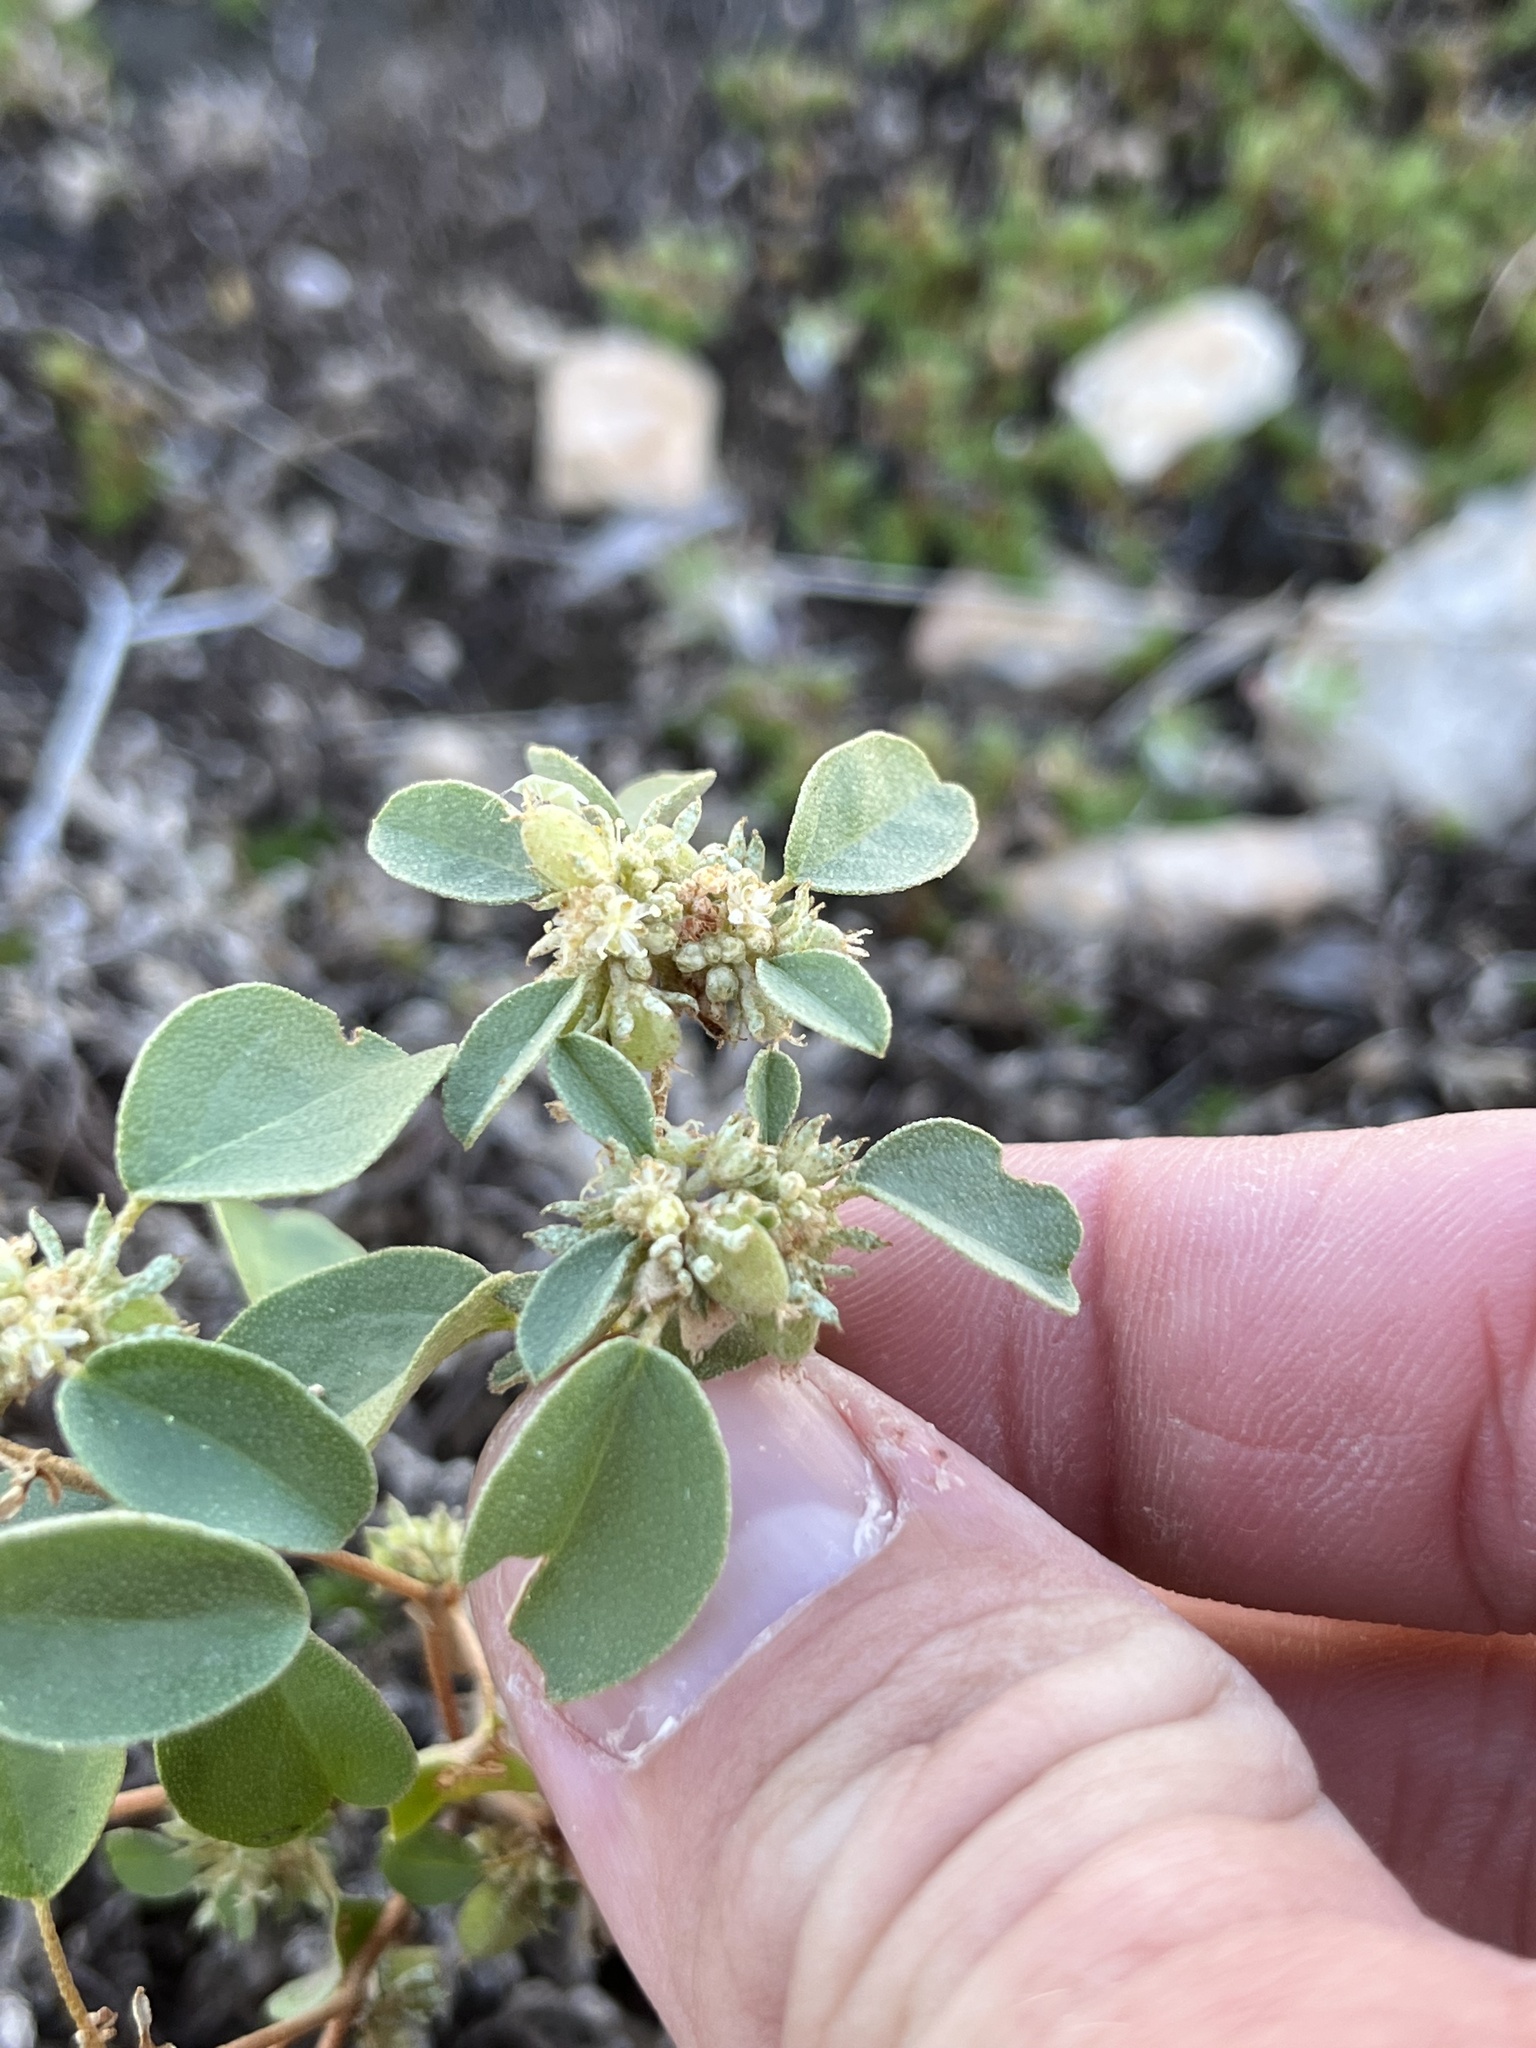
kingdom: Plantae
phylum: Tracheophyta
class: Magnoliopsida
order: Malpighiales
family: Euphorbiaceae
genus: Croton
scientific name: Croton monanthogynus
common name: One-seed croton
